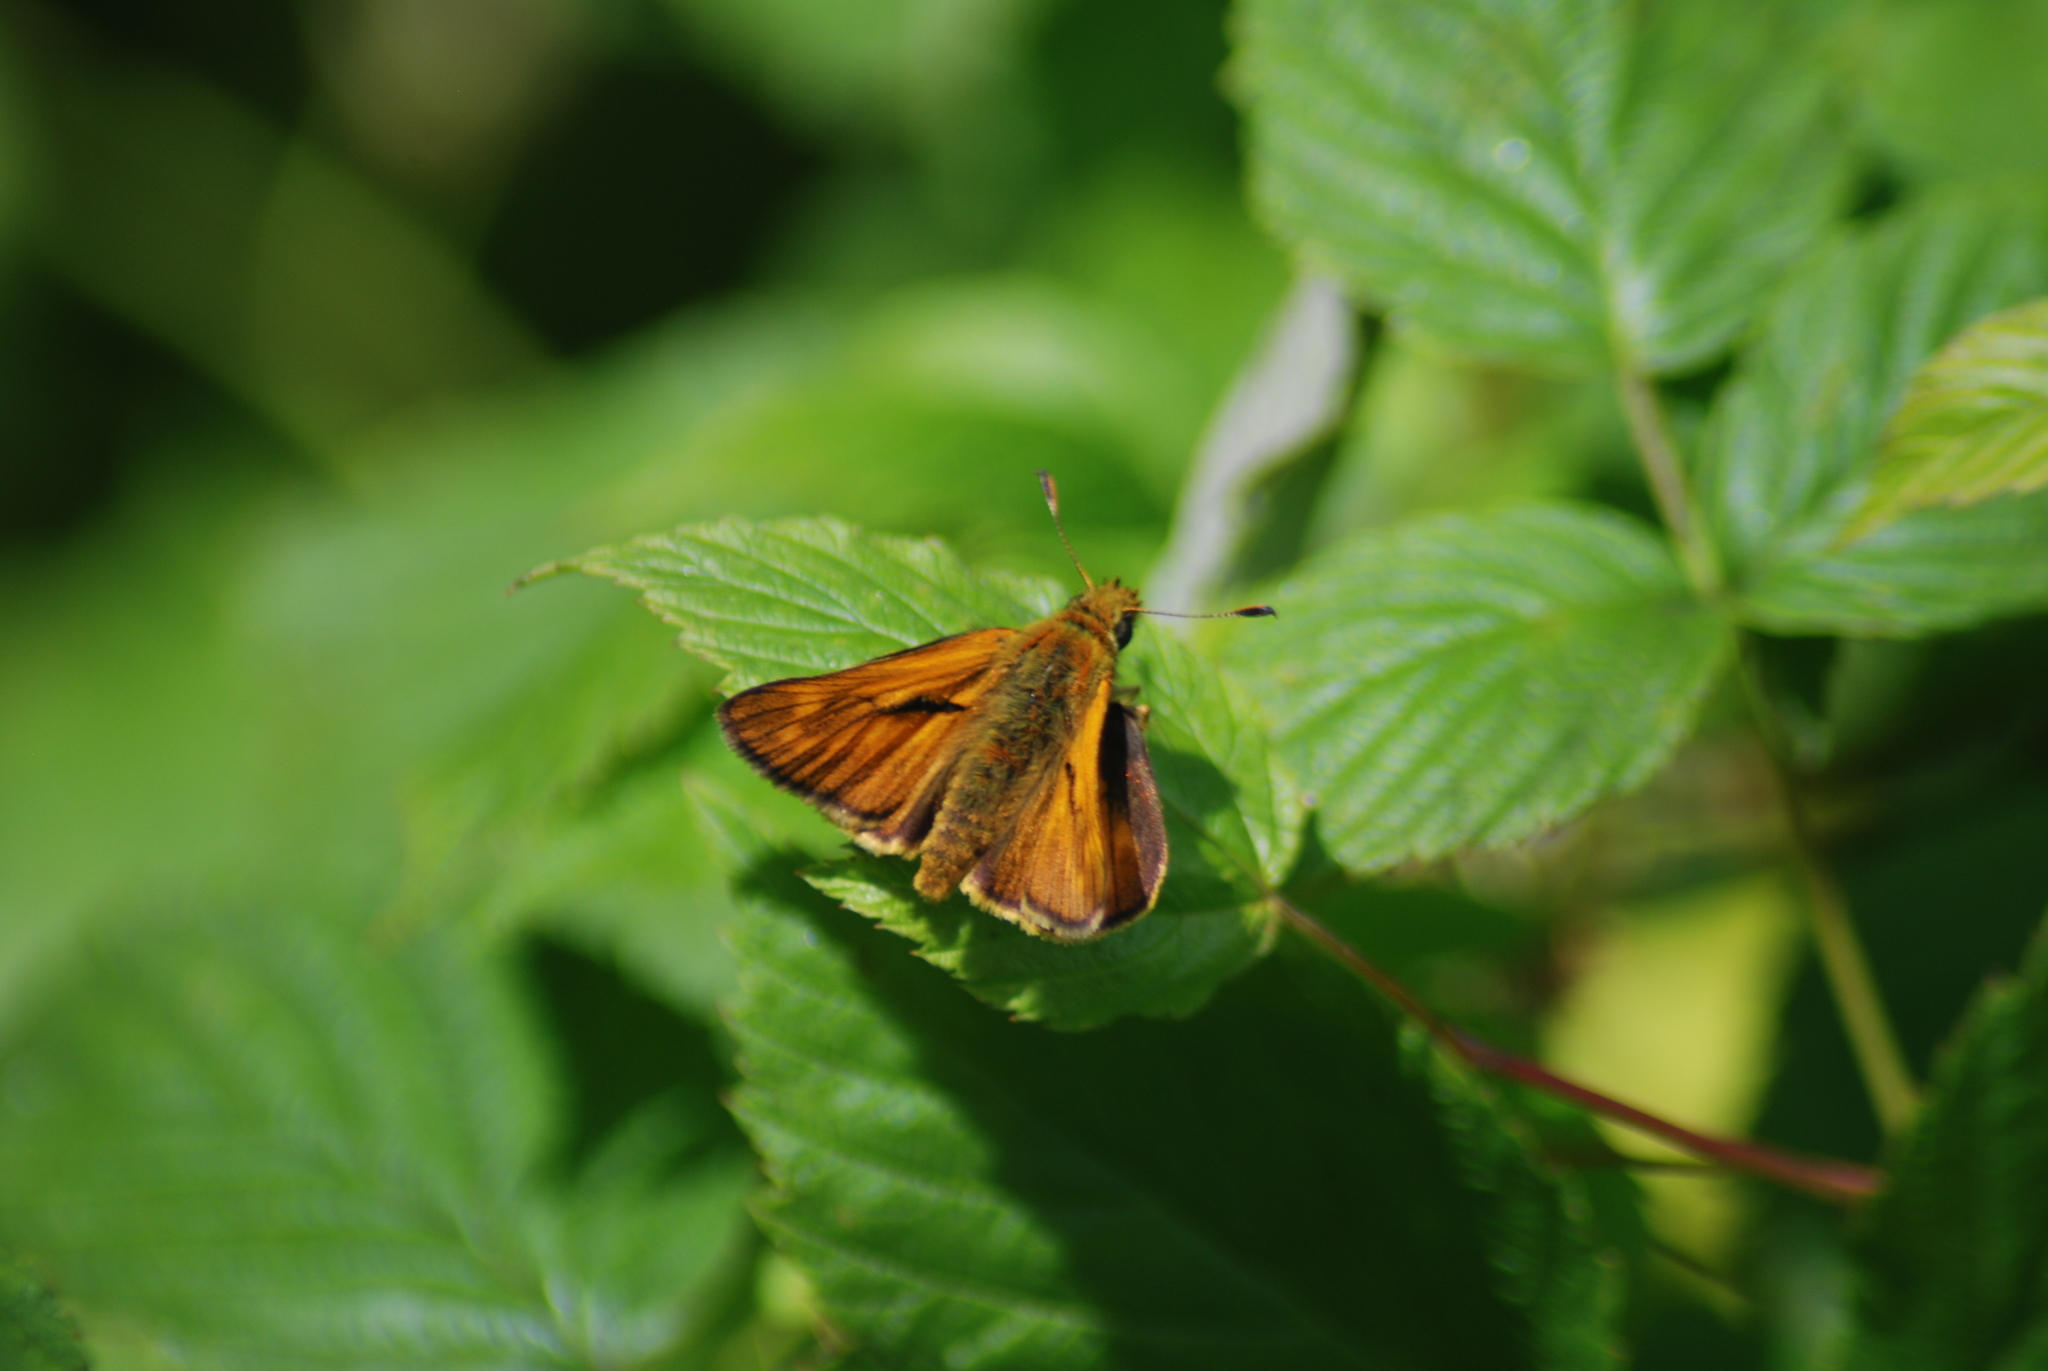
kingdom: Animalia
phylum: Arthropoda
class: Insecta
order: Lepidoptera
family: Hesperiidae
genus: Ochlodes
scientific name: Ochlodes venata
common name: Large skipper
